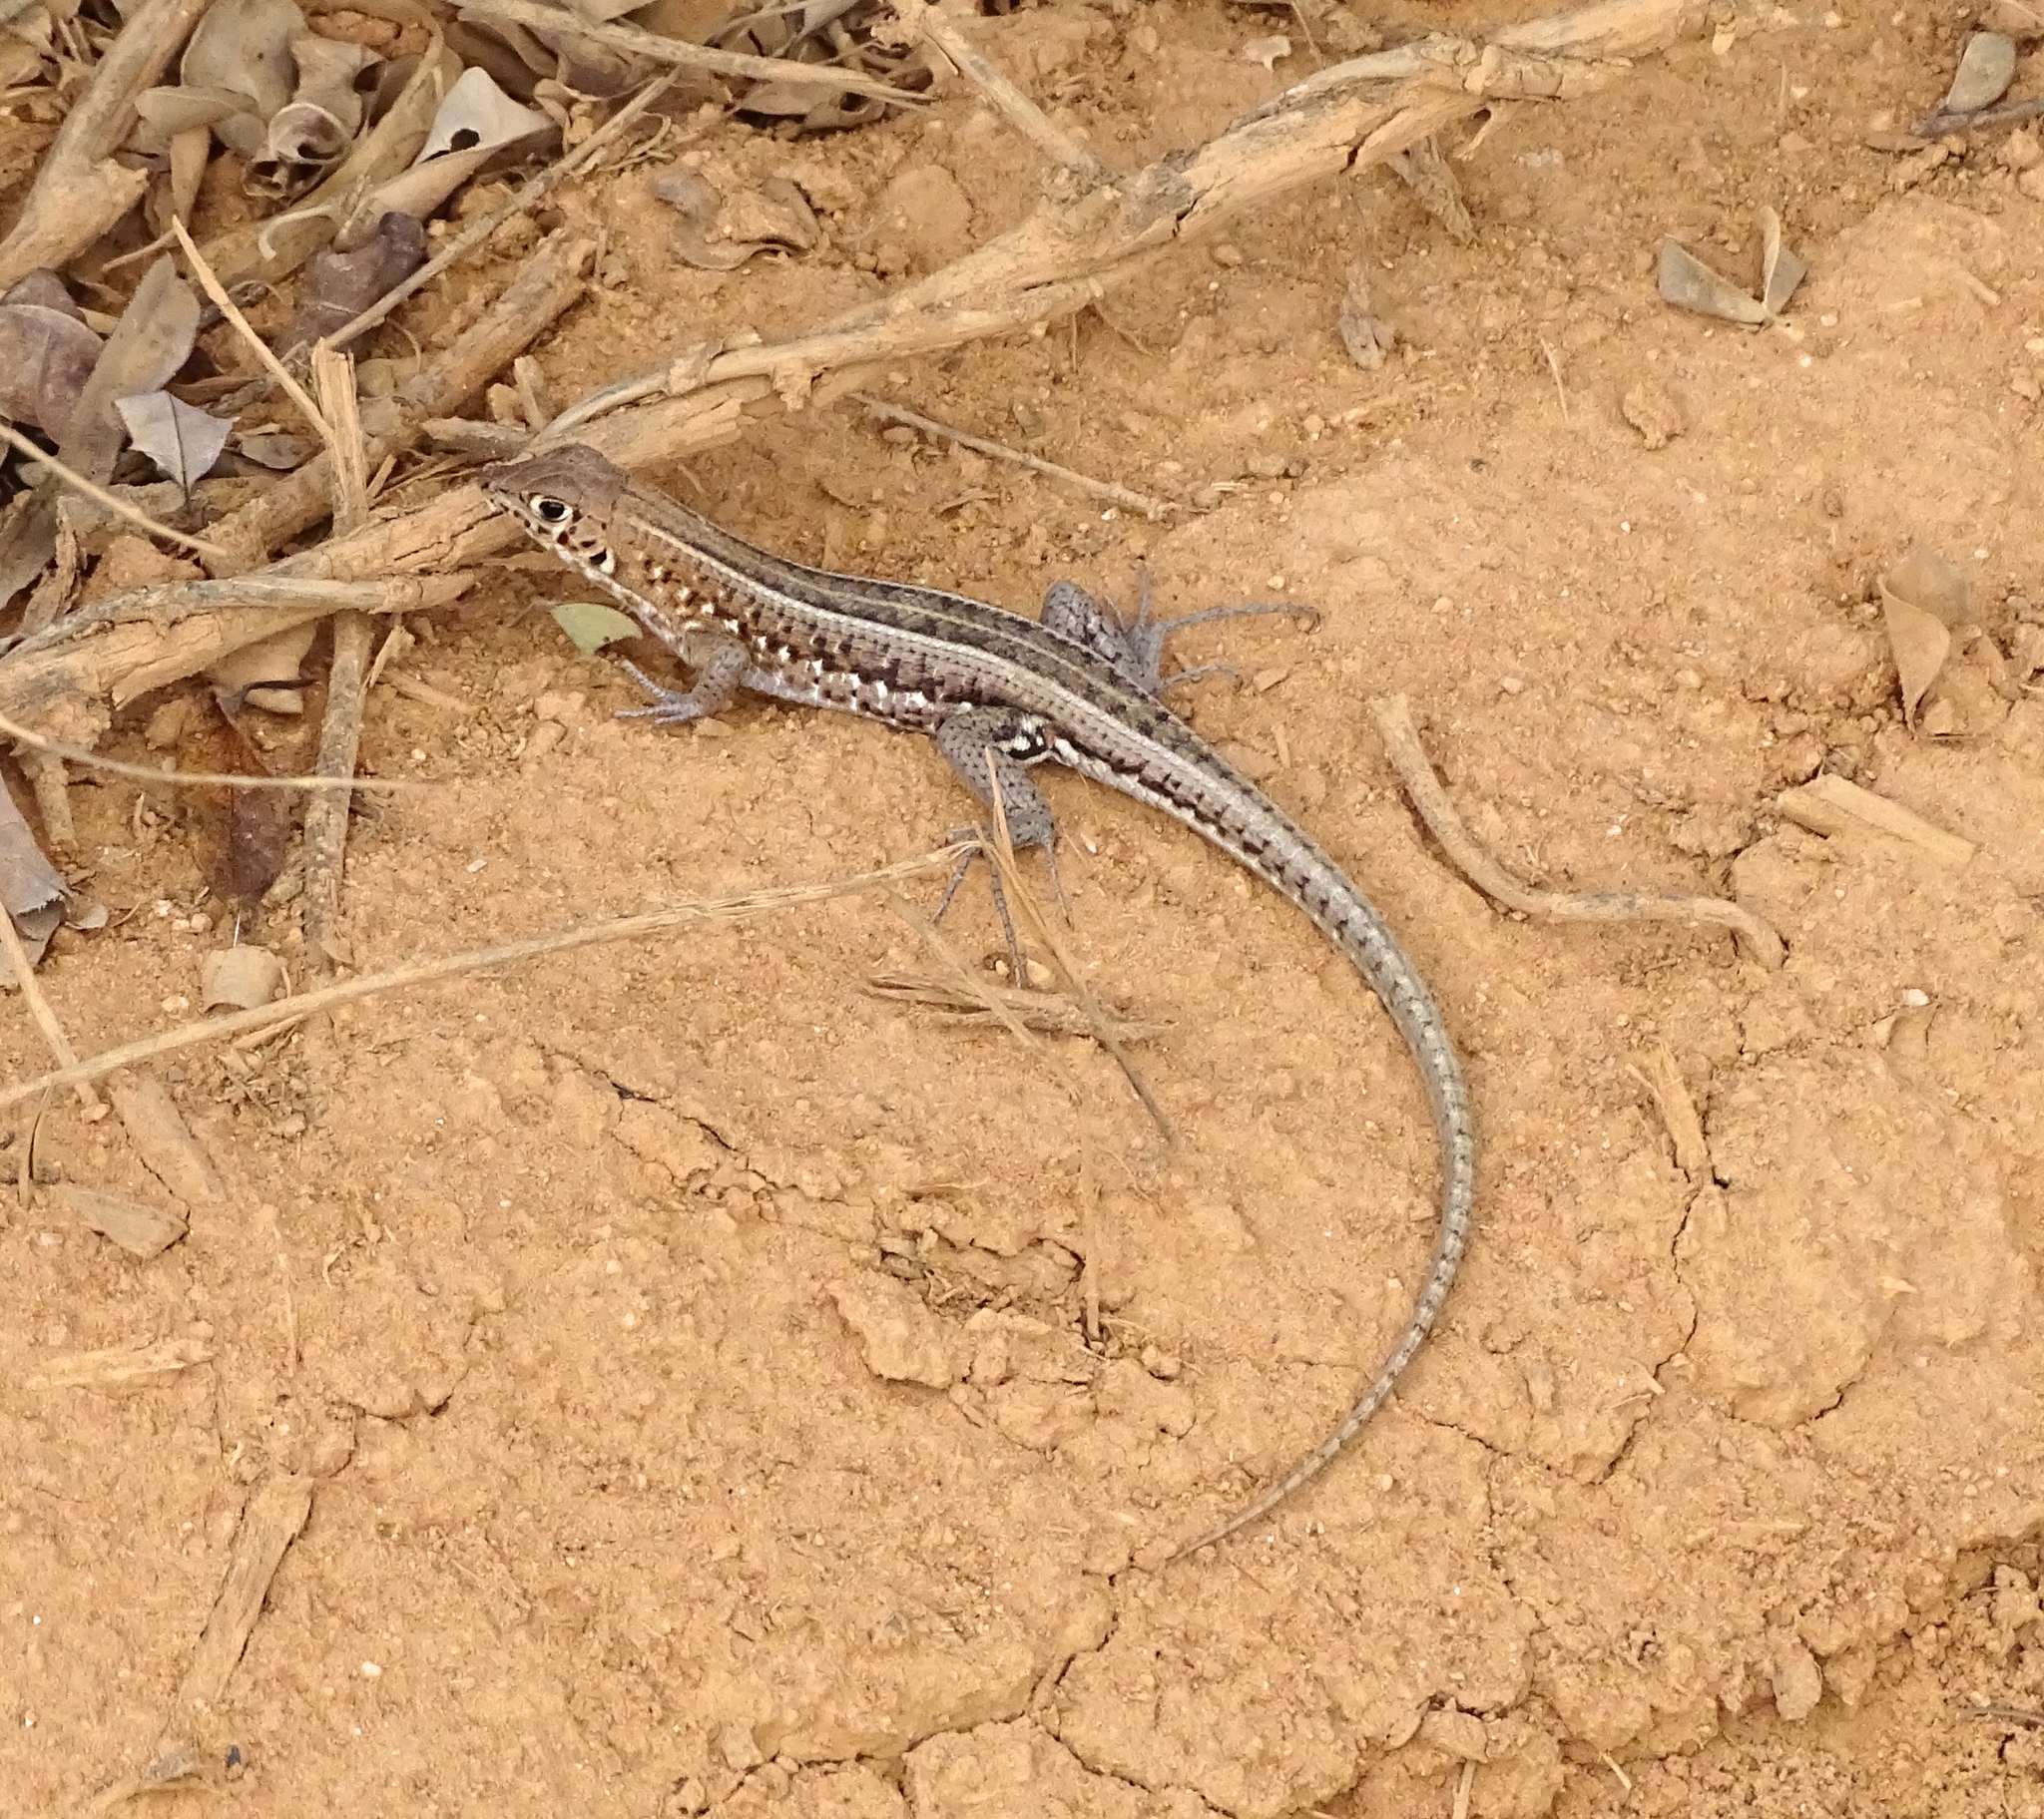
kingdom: Animalia
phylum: Chordata
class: Squamata
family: Gerrhosauridae
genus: Tracheloptychus
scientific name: Tracheloptychus madagascariensis
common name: Madagascar girdled lizard
